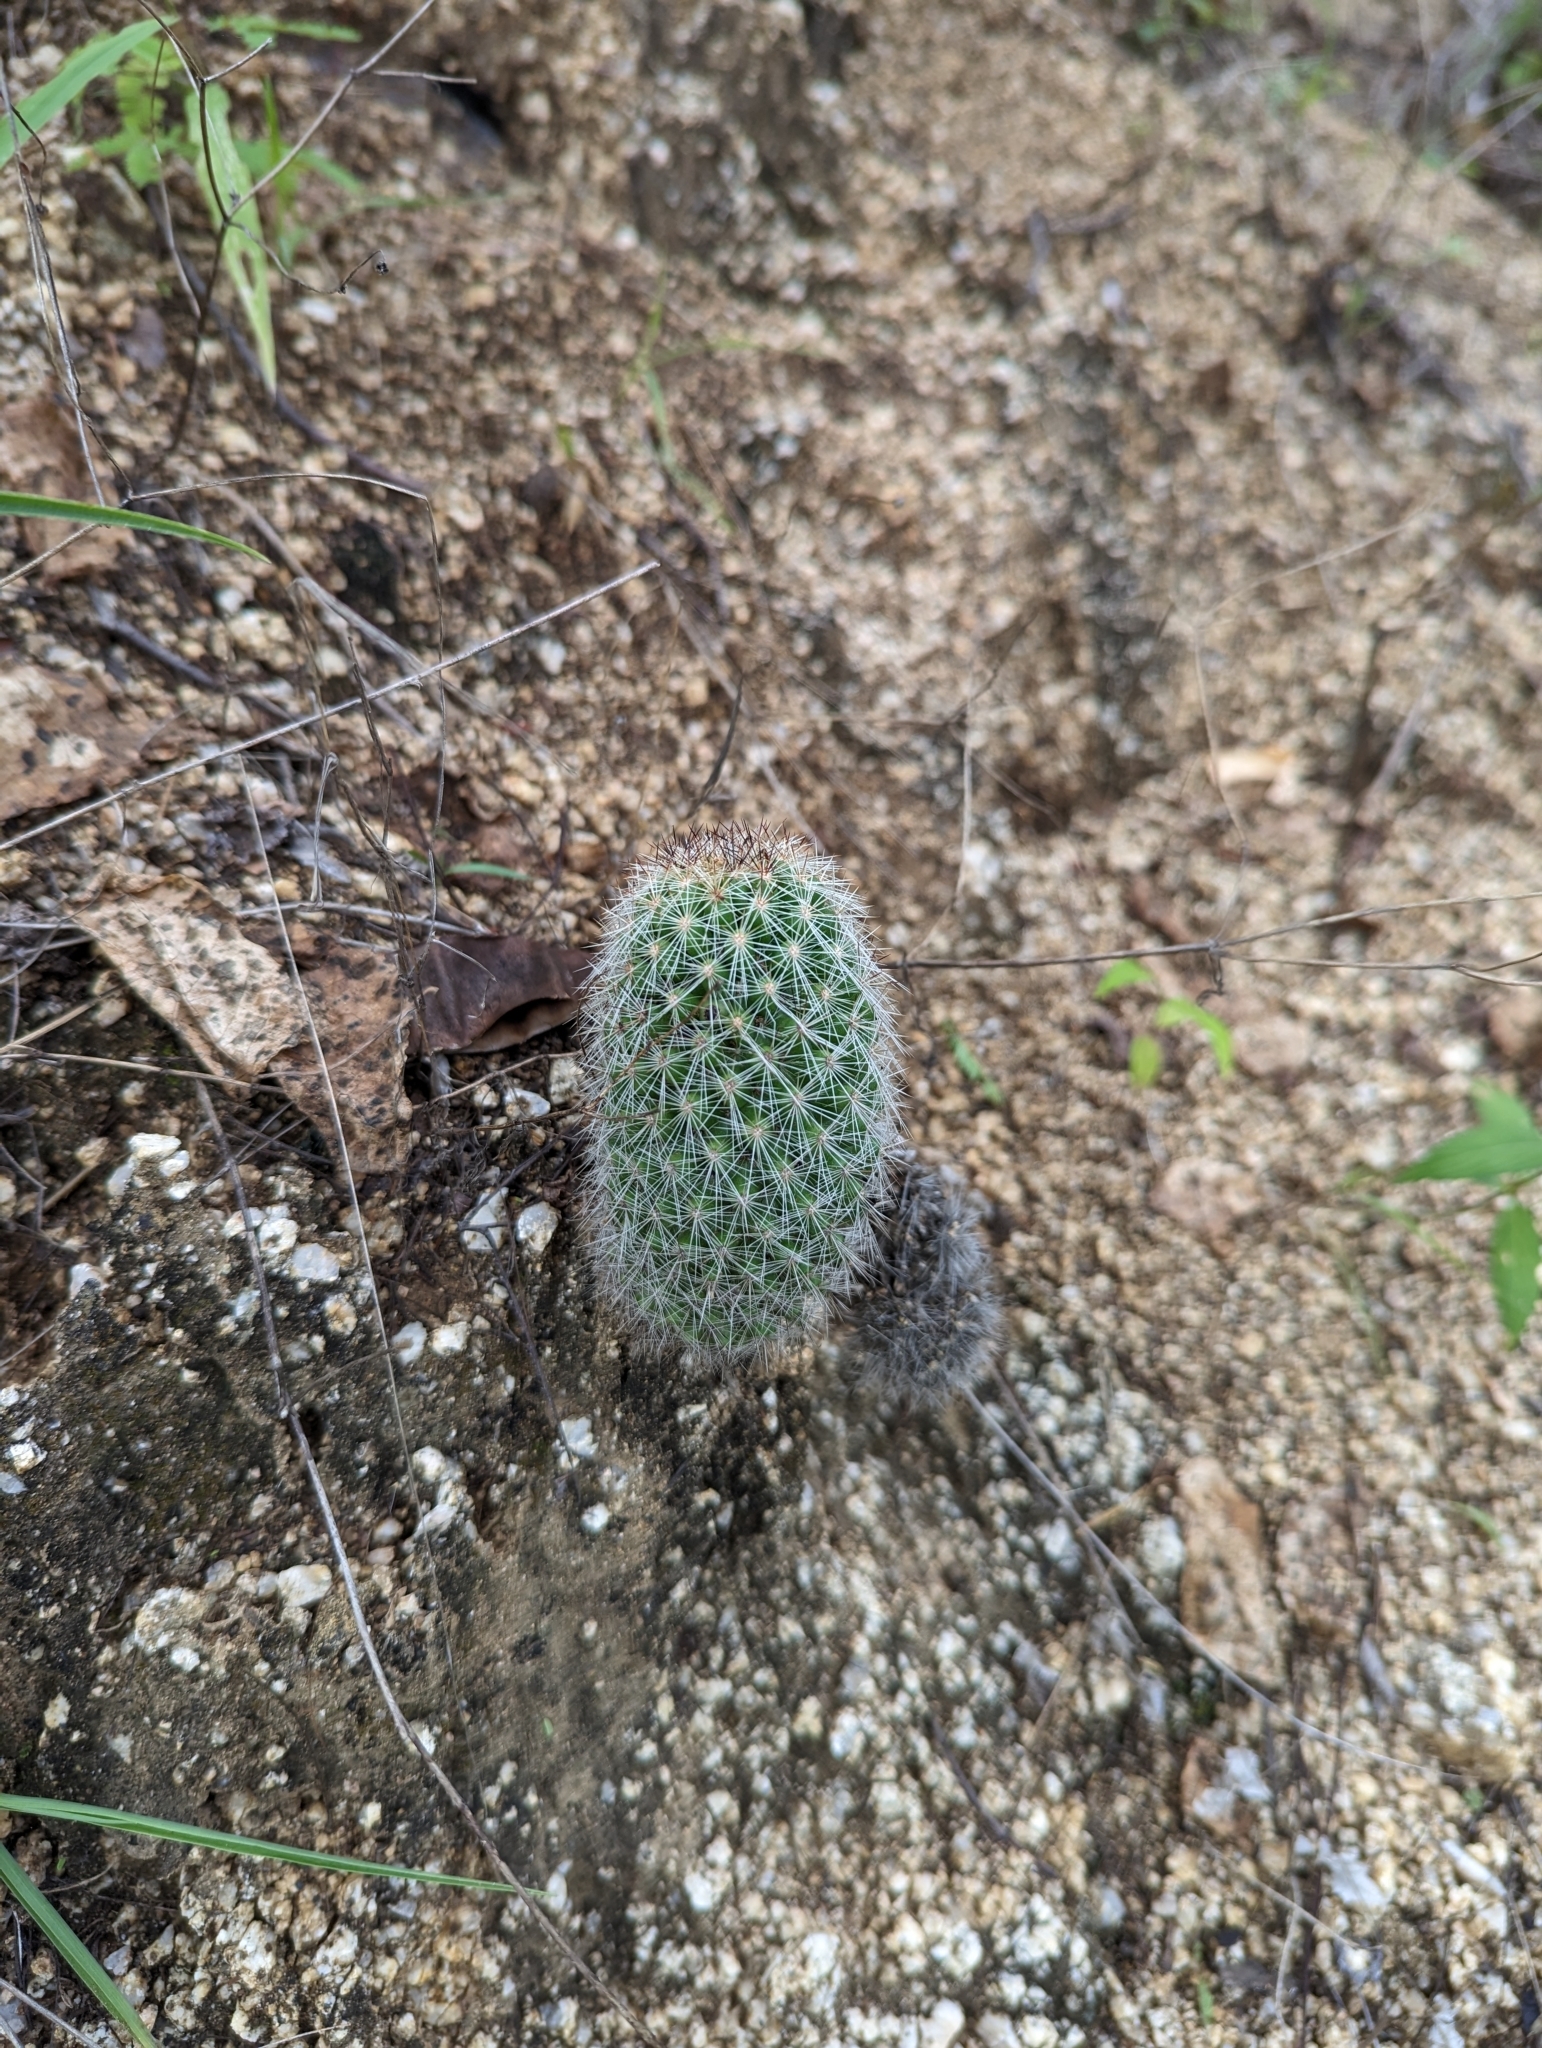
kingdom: Plantae
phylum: Tracheophyta
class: Magnoliopsida
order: Caryophyllales
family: Cactaceae
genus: Cochemiea
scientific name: Cochemiea phitauiana
